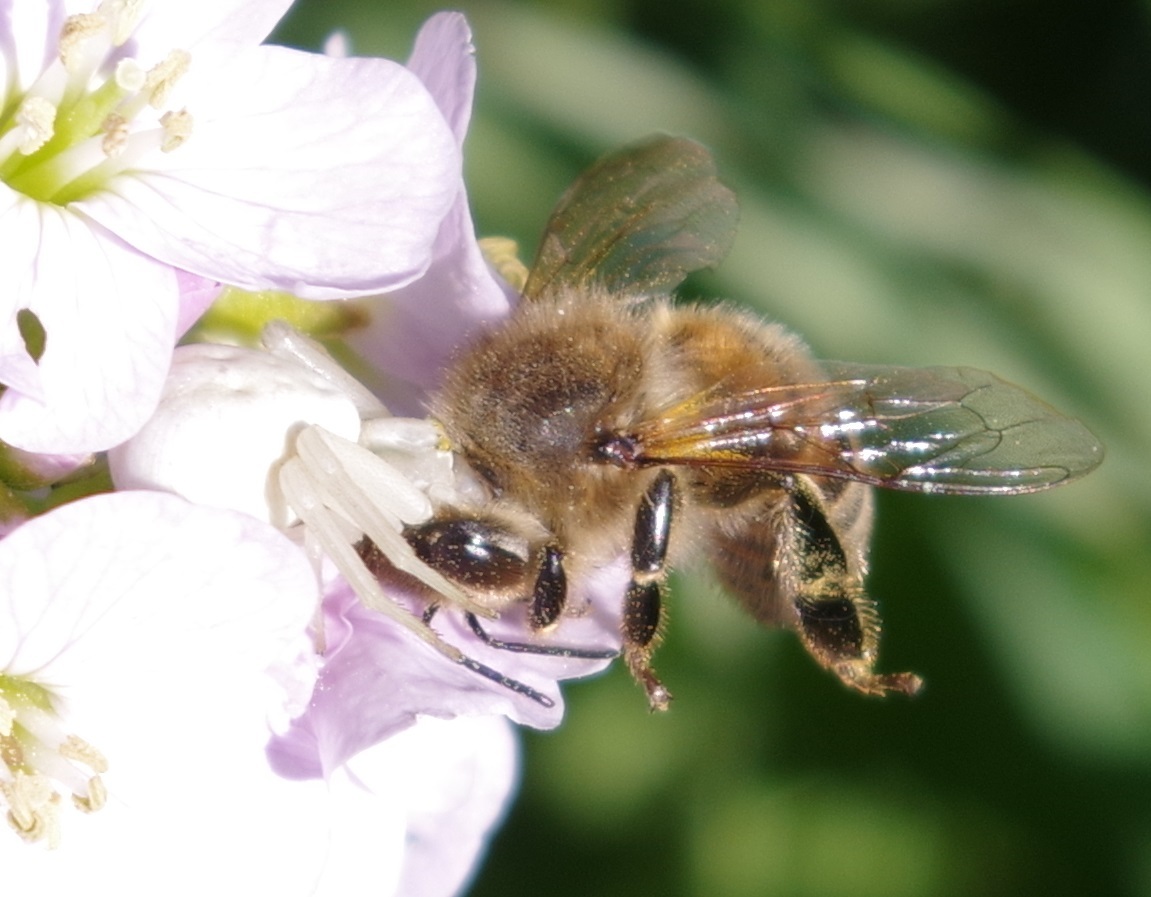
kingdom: Animalia
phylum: Arthropoda
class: Insecta
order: Hymenoptera
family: Apidae
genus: Apis
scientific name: Apis mellifera
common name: Honey bee
